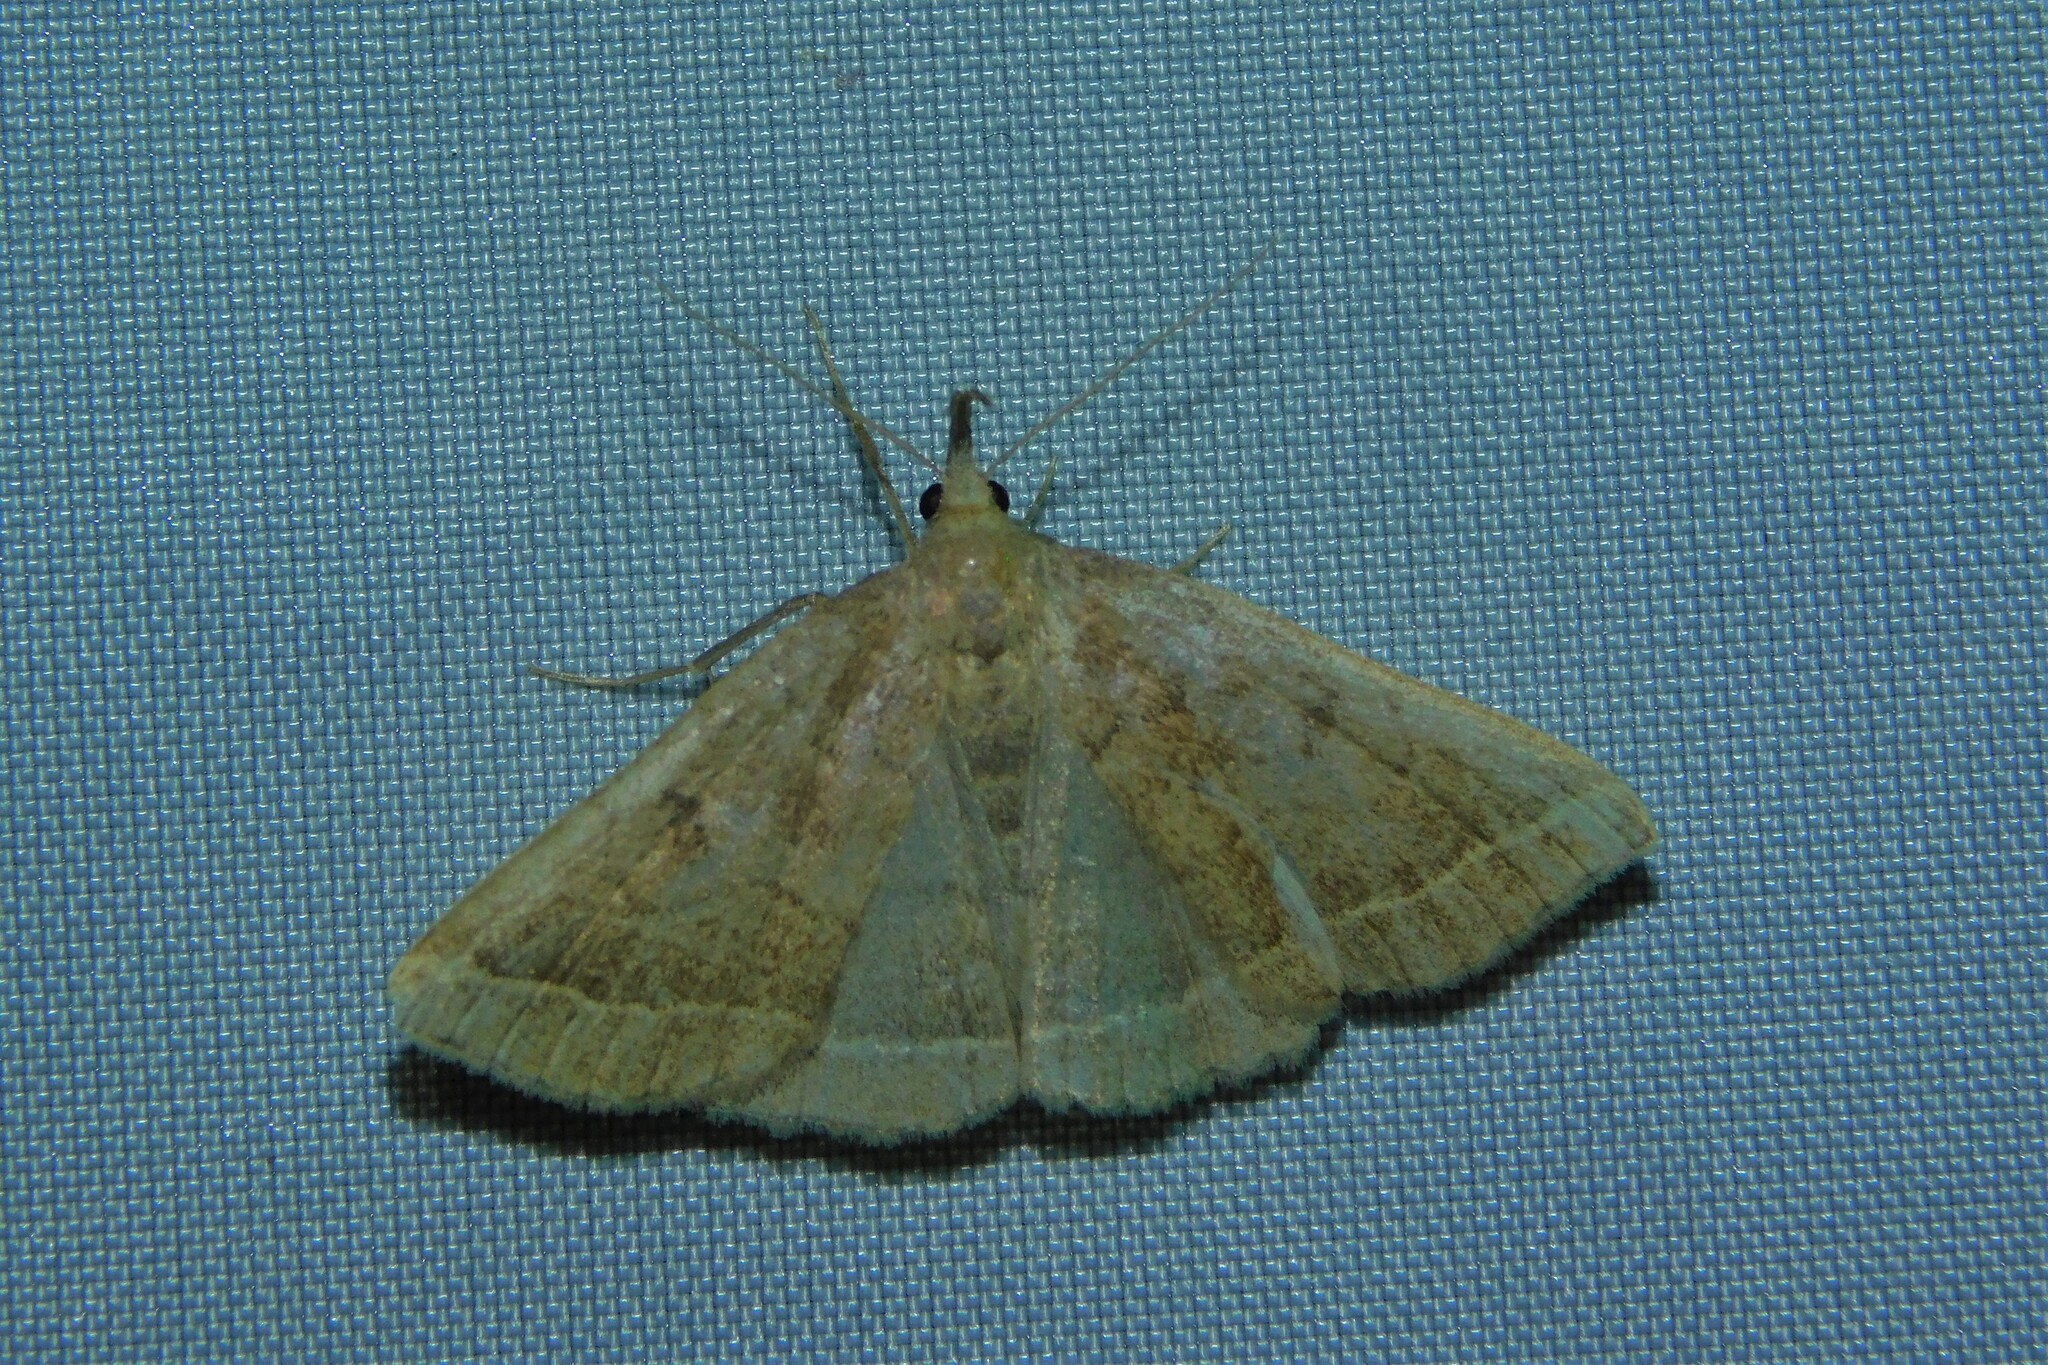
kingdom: Animalia
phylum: Arthropoda
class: Insecta
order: Lepidoptera
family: Erebidae
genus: Pechipogo
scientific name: Pechipogo plumigeralis
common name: Plumed fan-foot
